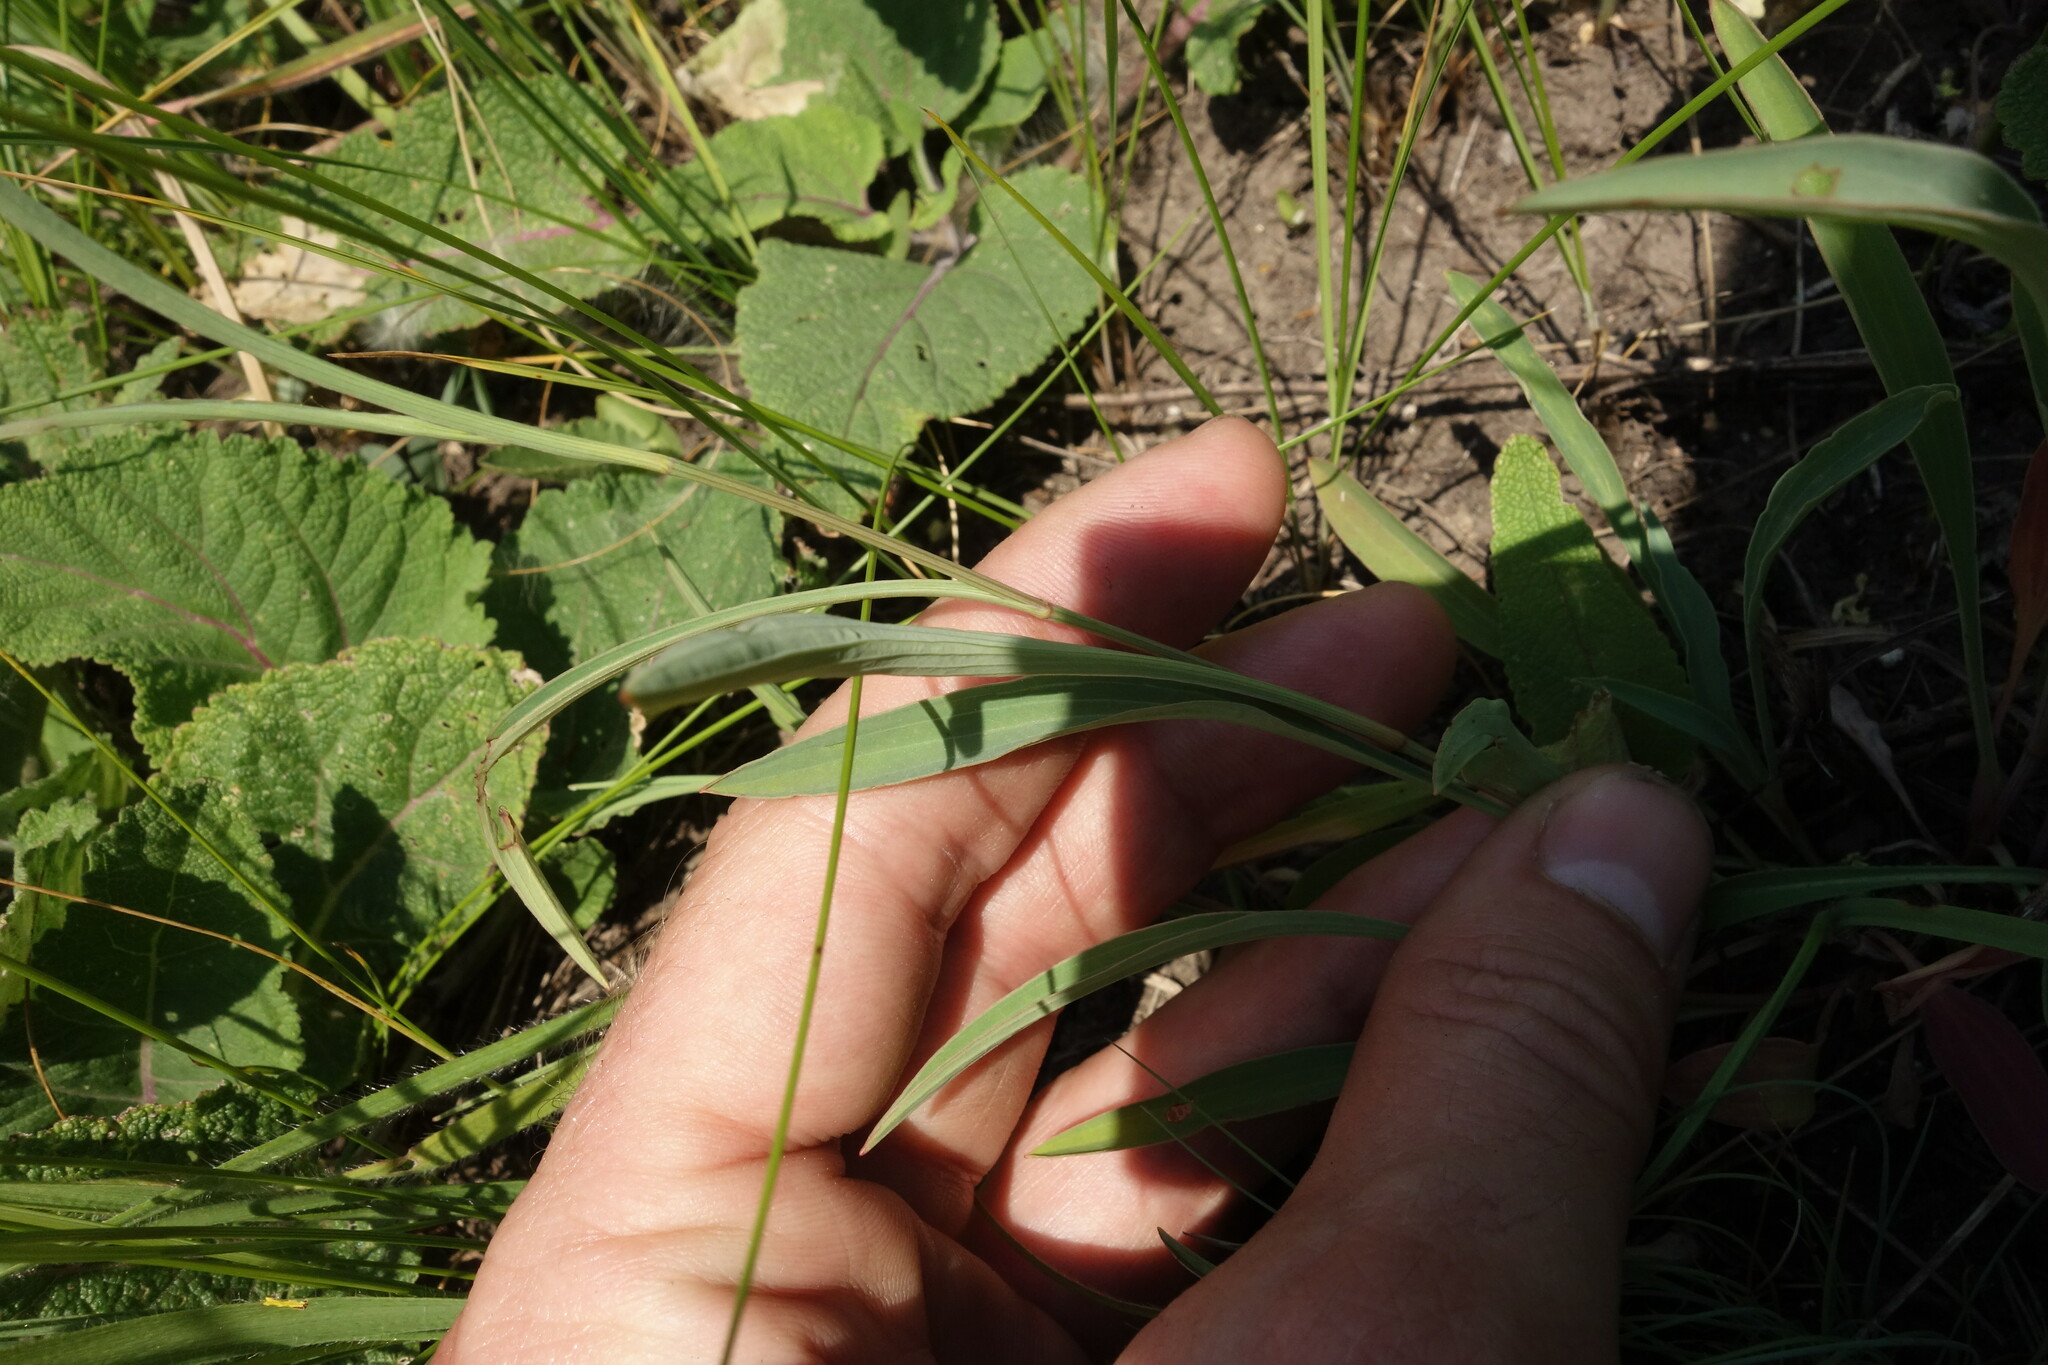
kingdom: Plantae
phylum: Tracheophyta
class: Magnoliopsida
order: Apiales
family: Apiaceae
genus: Bupleurum
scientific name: Bupleurum falcatum
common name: Sickle-leaved hare's-ear
